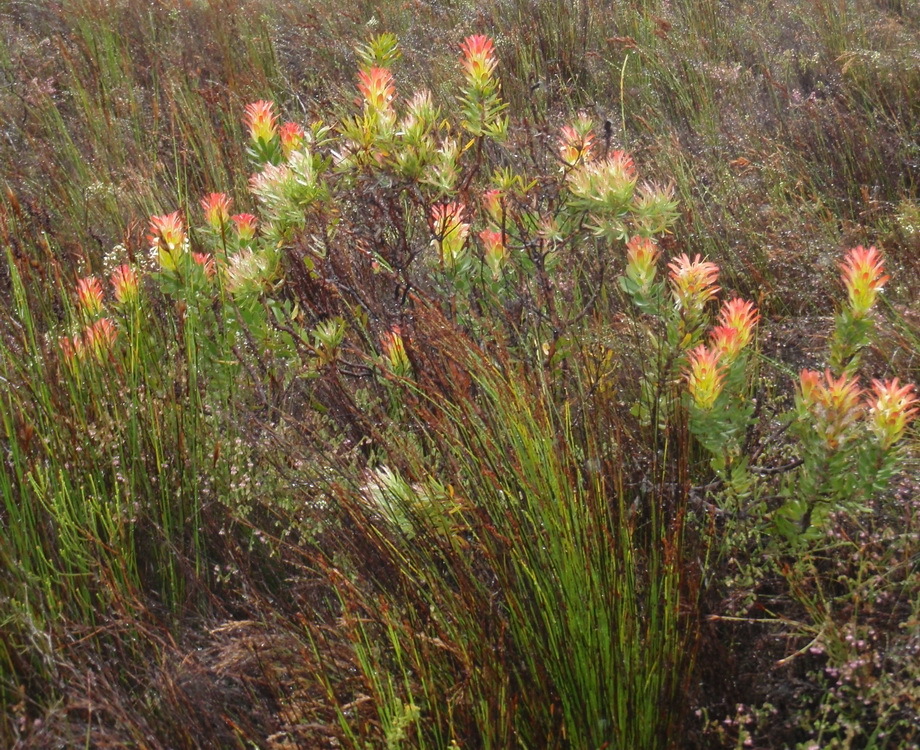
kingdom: Plantae
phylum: Tracheophyta
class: Magnoliopsida
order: Proteales
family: Proteaceae
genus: Mimetes
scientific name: Mimetes cucullatus
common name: Common pagoda
